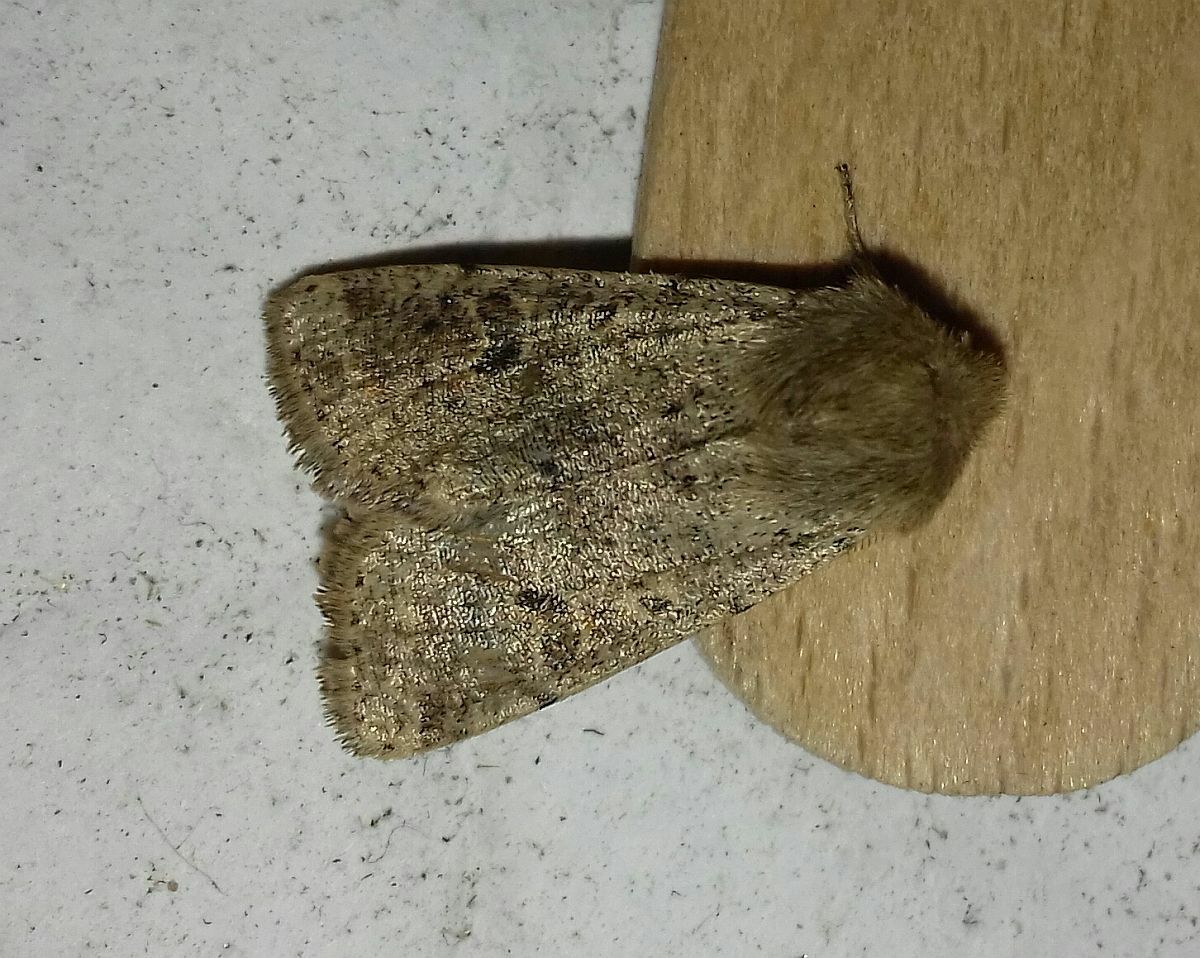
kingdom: Animalia
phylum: Arthropoda
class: Insecta
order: Lepidoptera
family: Noctuidae
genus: Orthosia
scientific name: Orthosia cruda
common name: Small quaker
